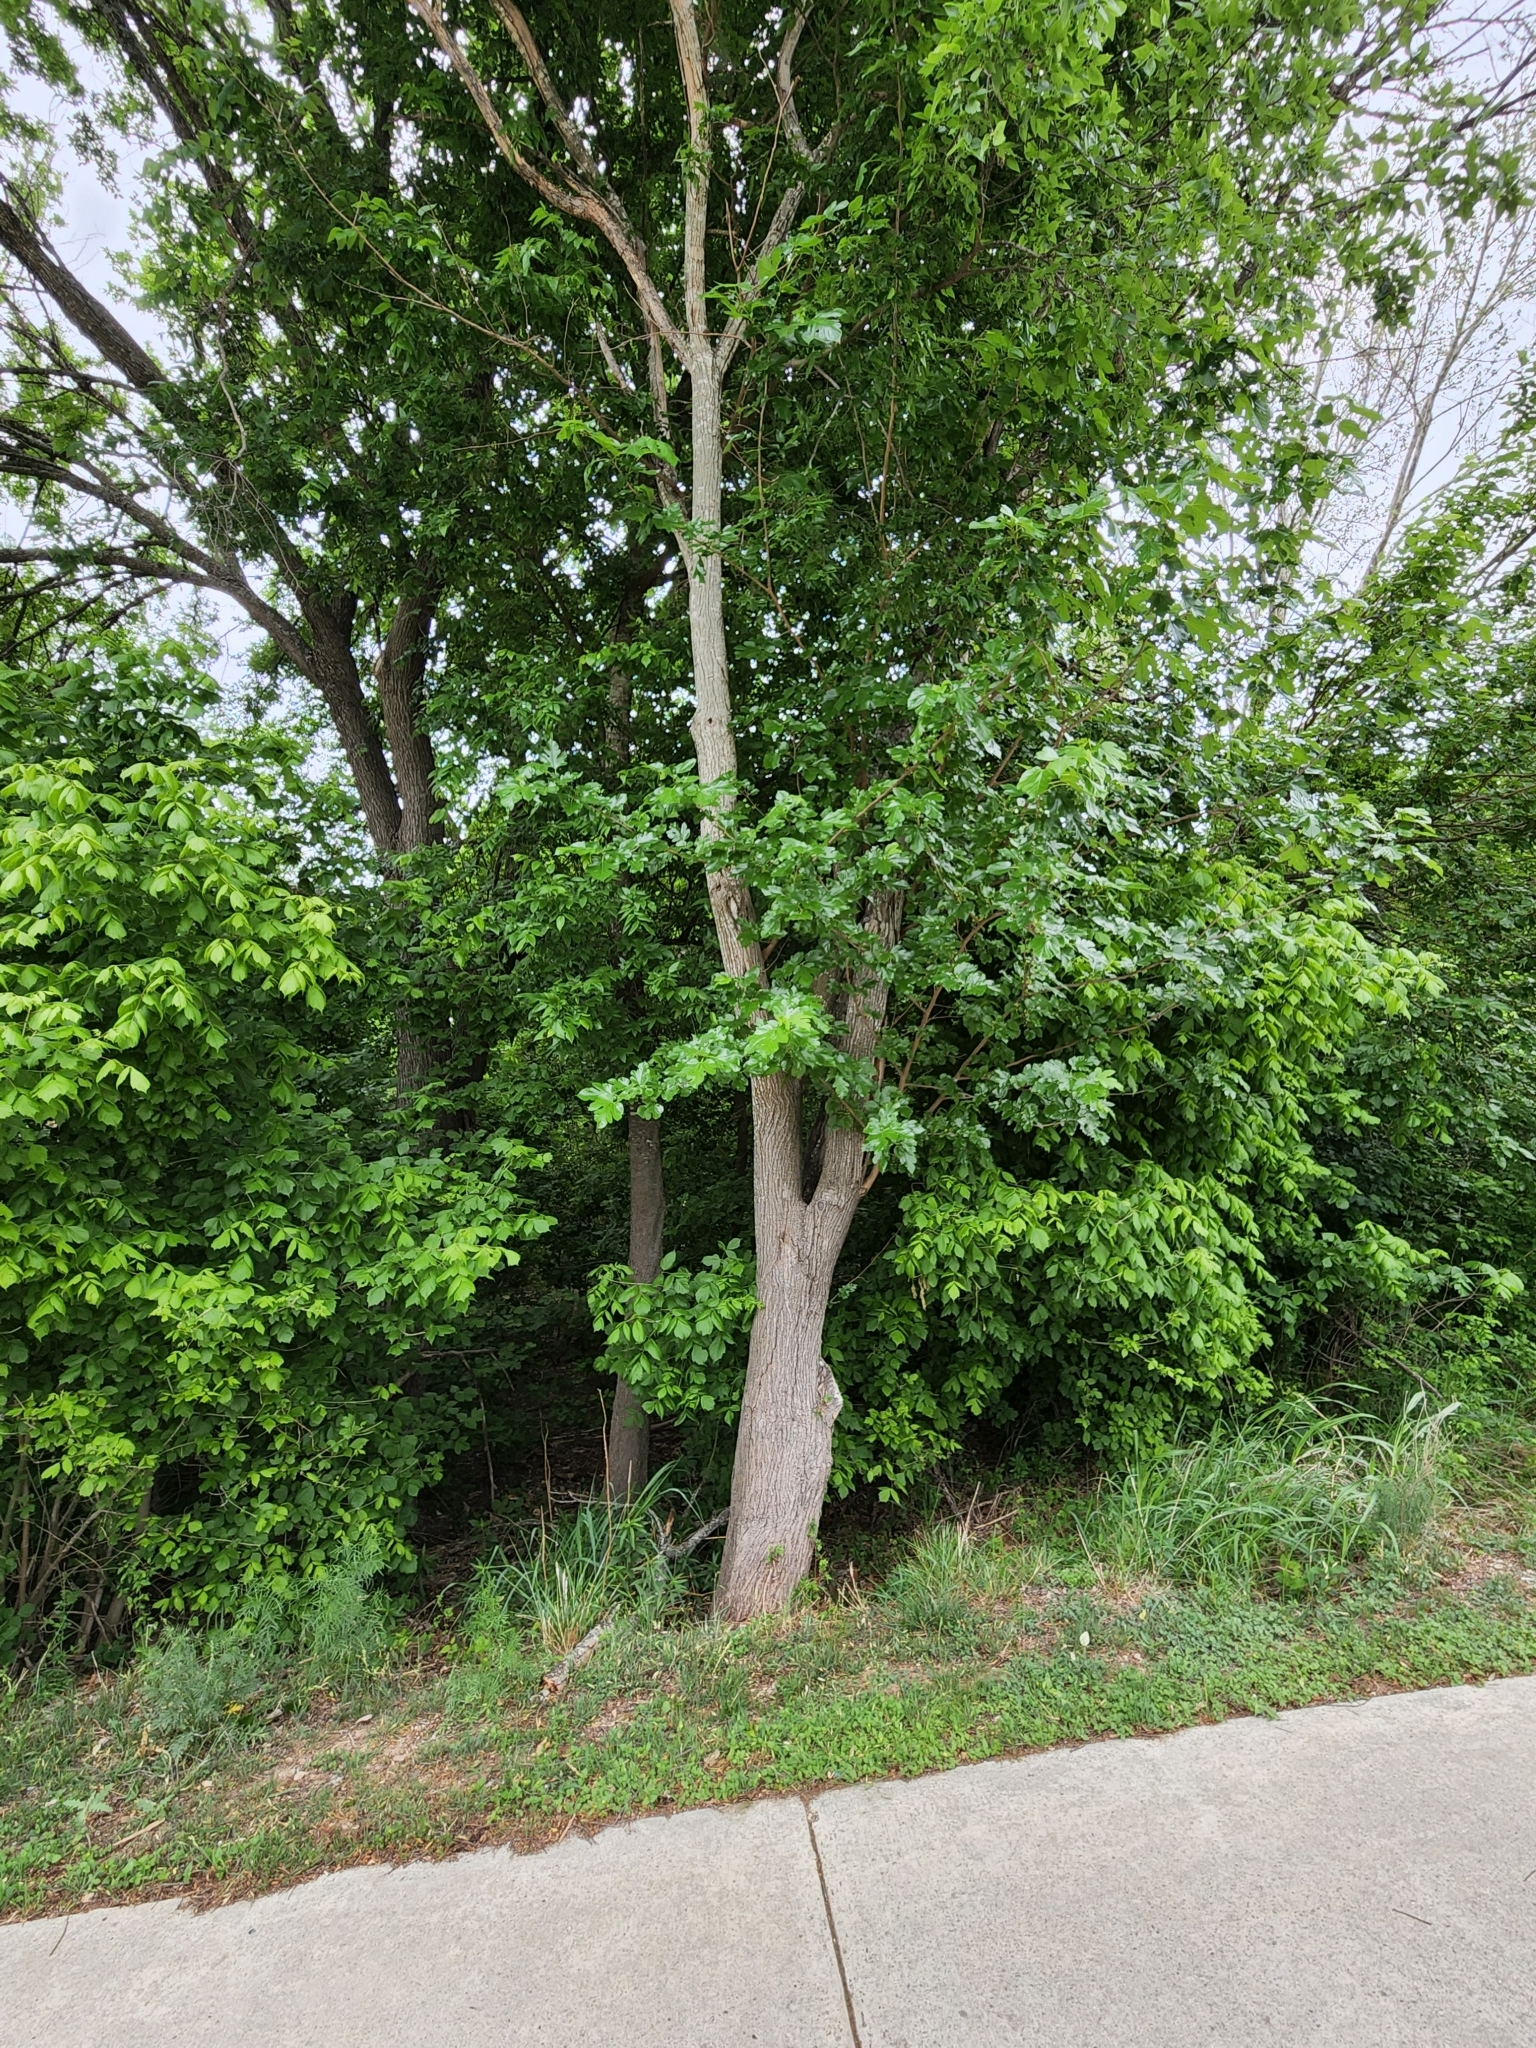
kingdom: Plantae
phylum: Tracheophyta
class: Magnoliopsida
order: Rosales
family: Moraceae
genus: Morus
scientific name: Morus alba
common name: White mulberry
